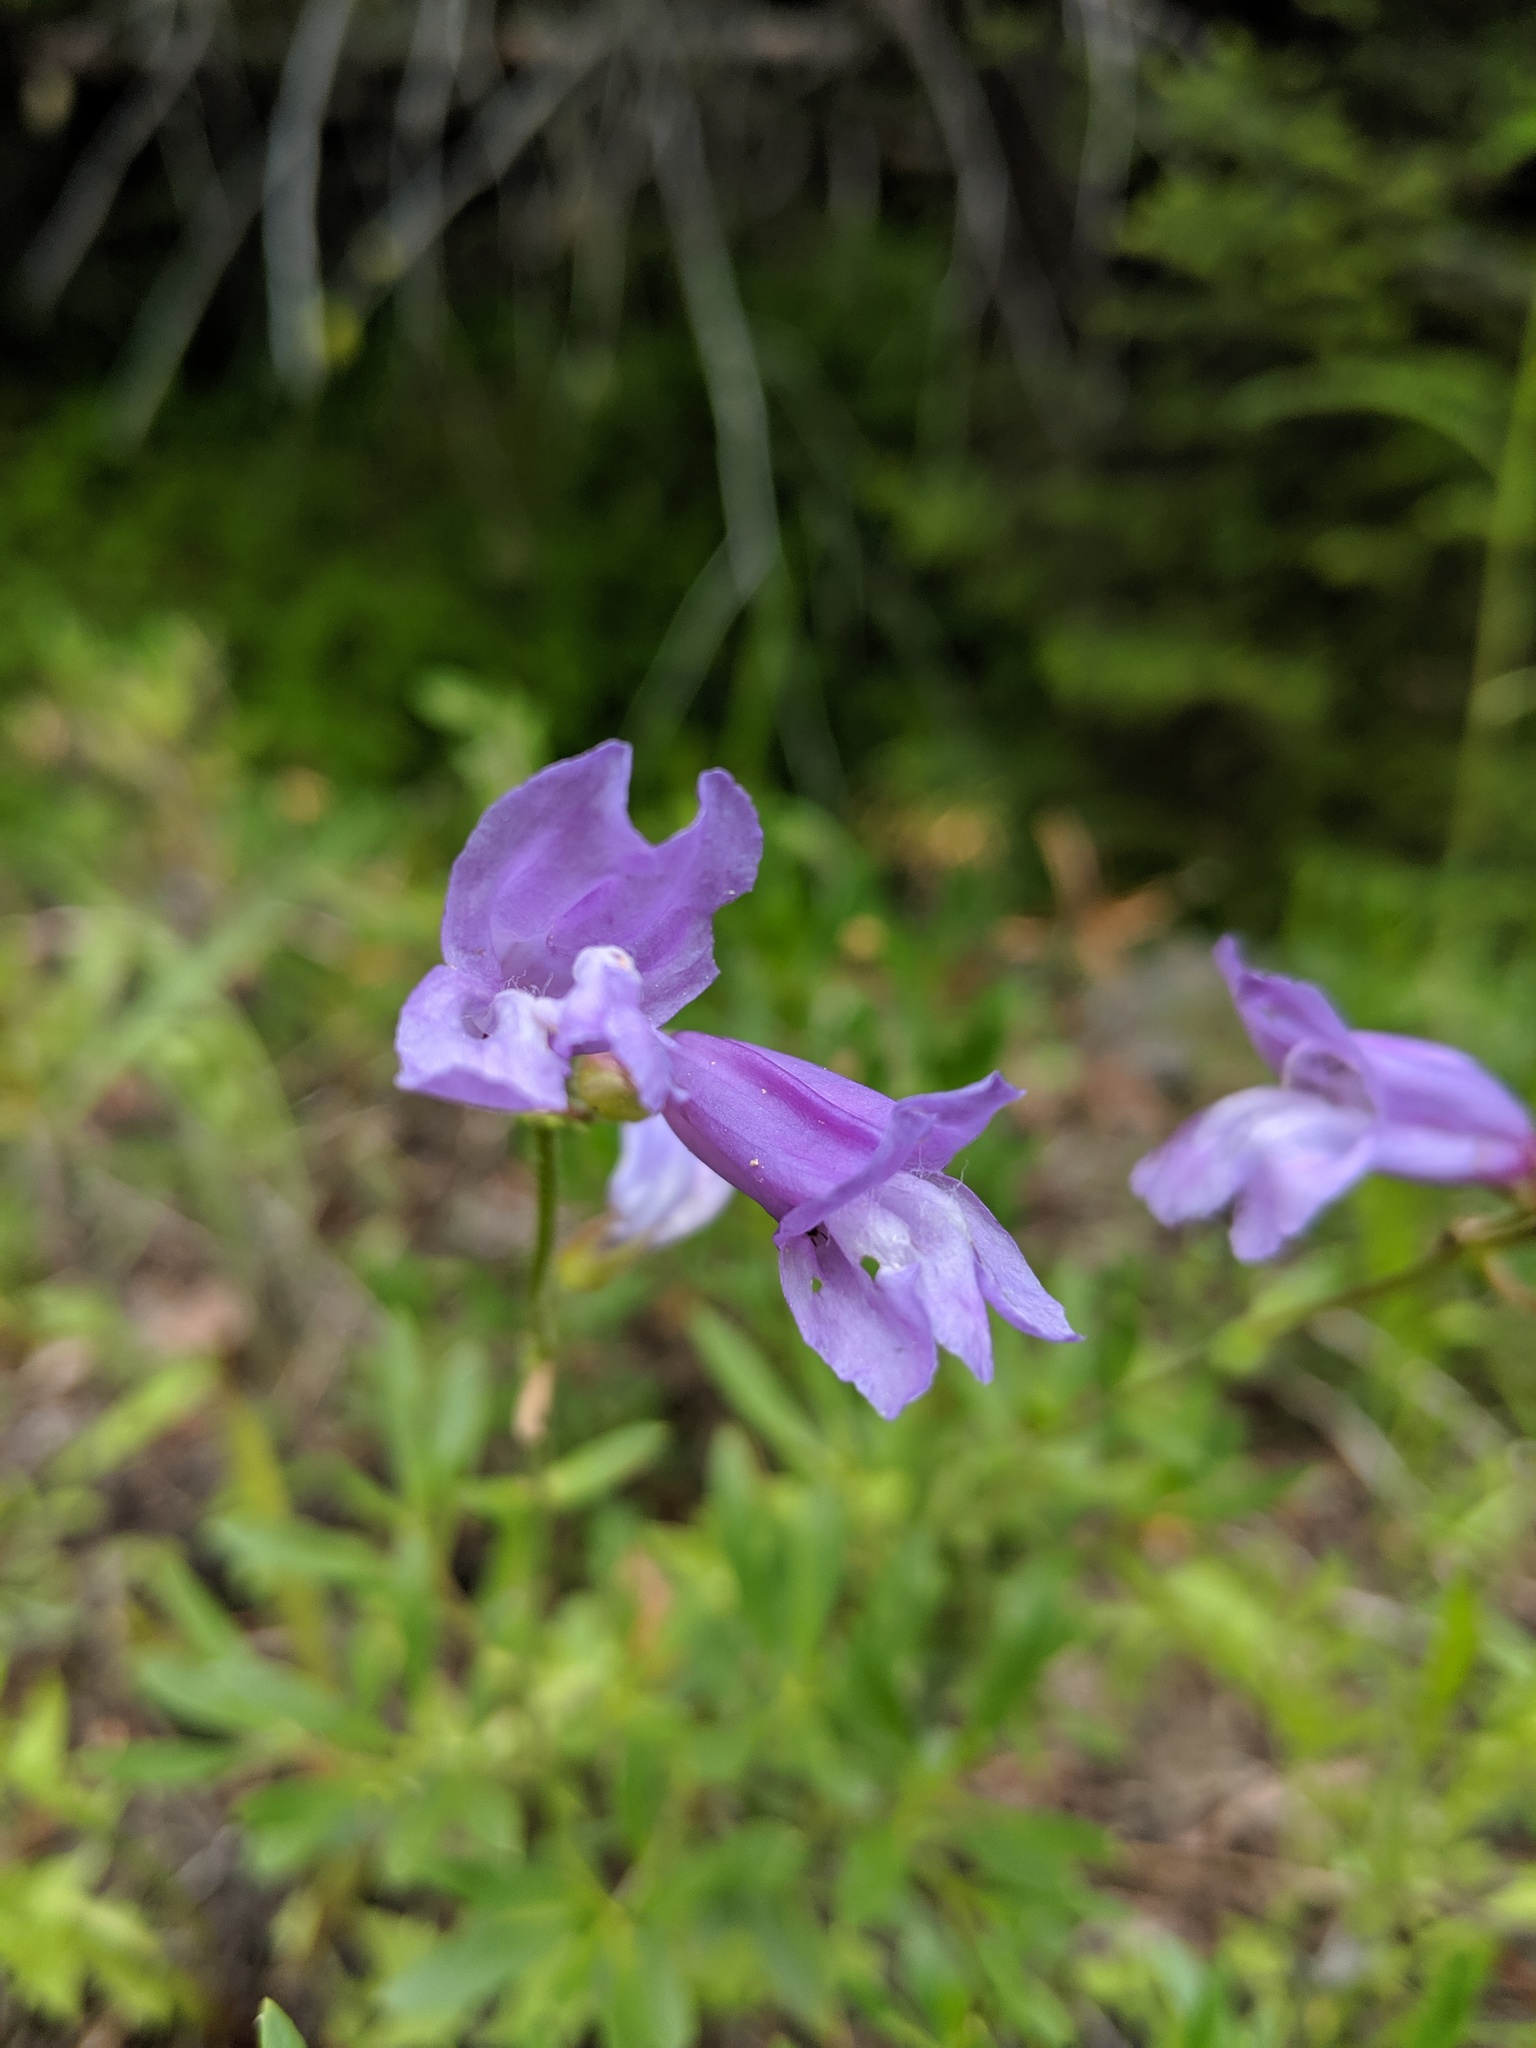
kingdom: Plantae
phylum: Tracheophyta
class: Magnoliopsida
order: Lamiales
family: Plantaginaceae
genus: Penstemon
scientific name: Penstemon fruticosus
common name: Bush penstemon
